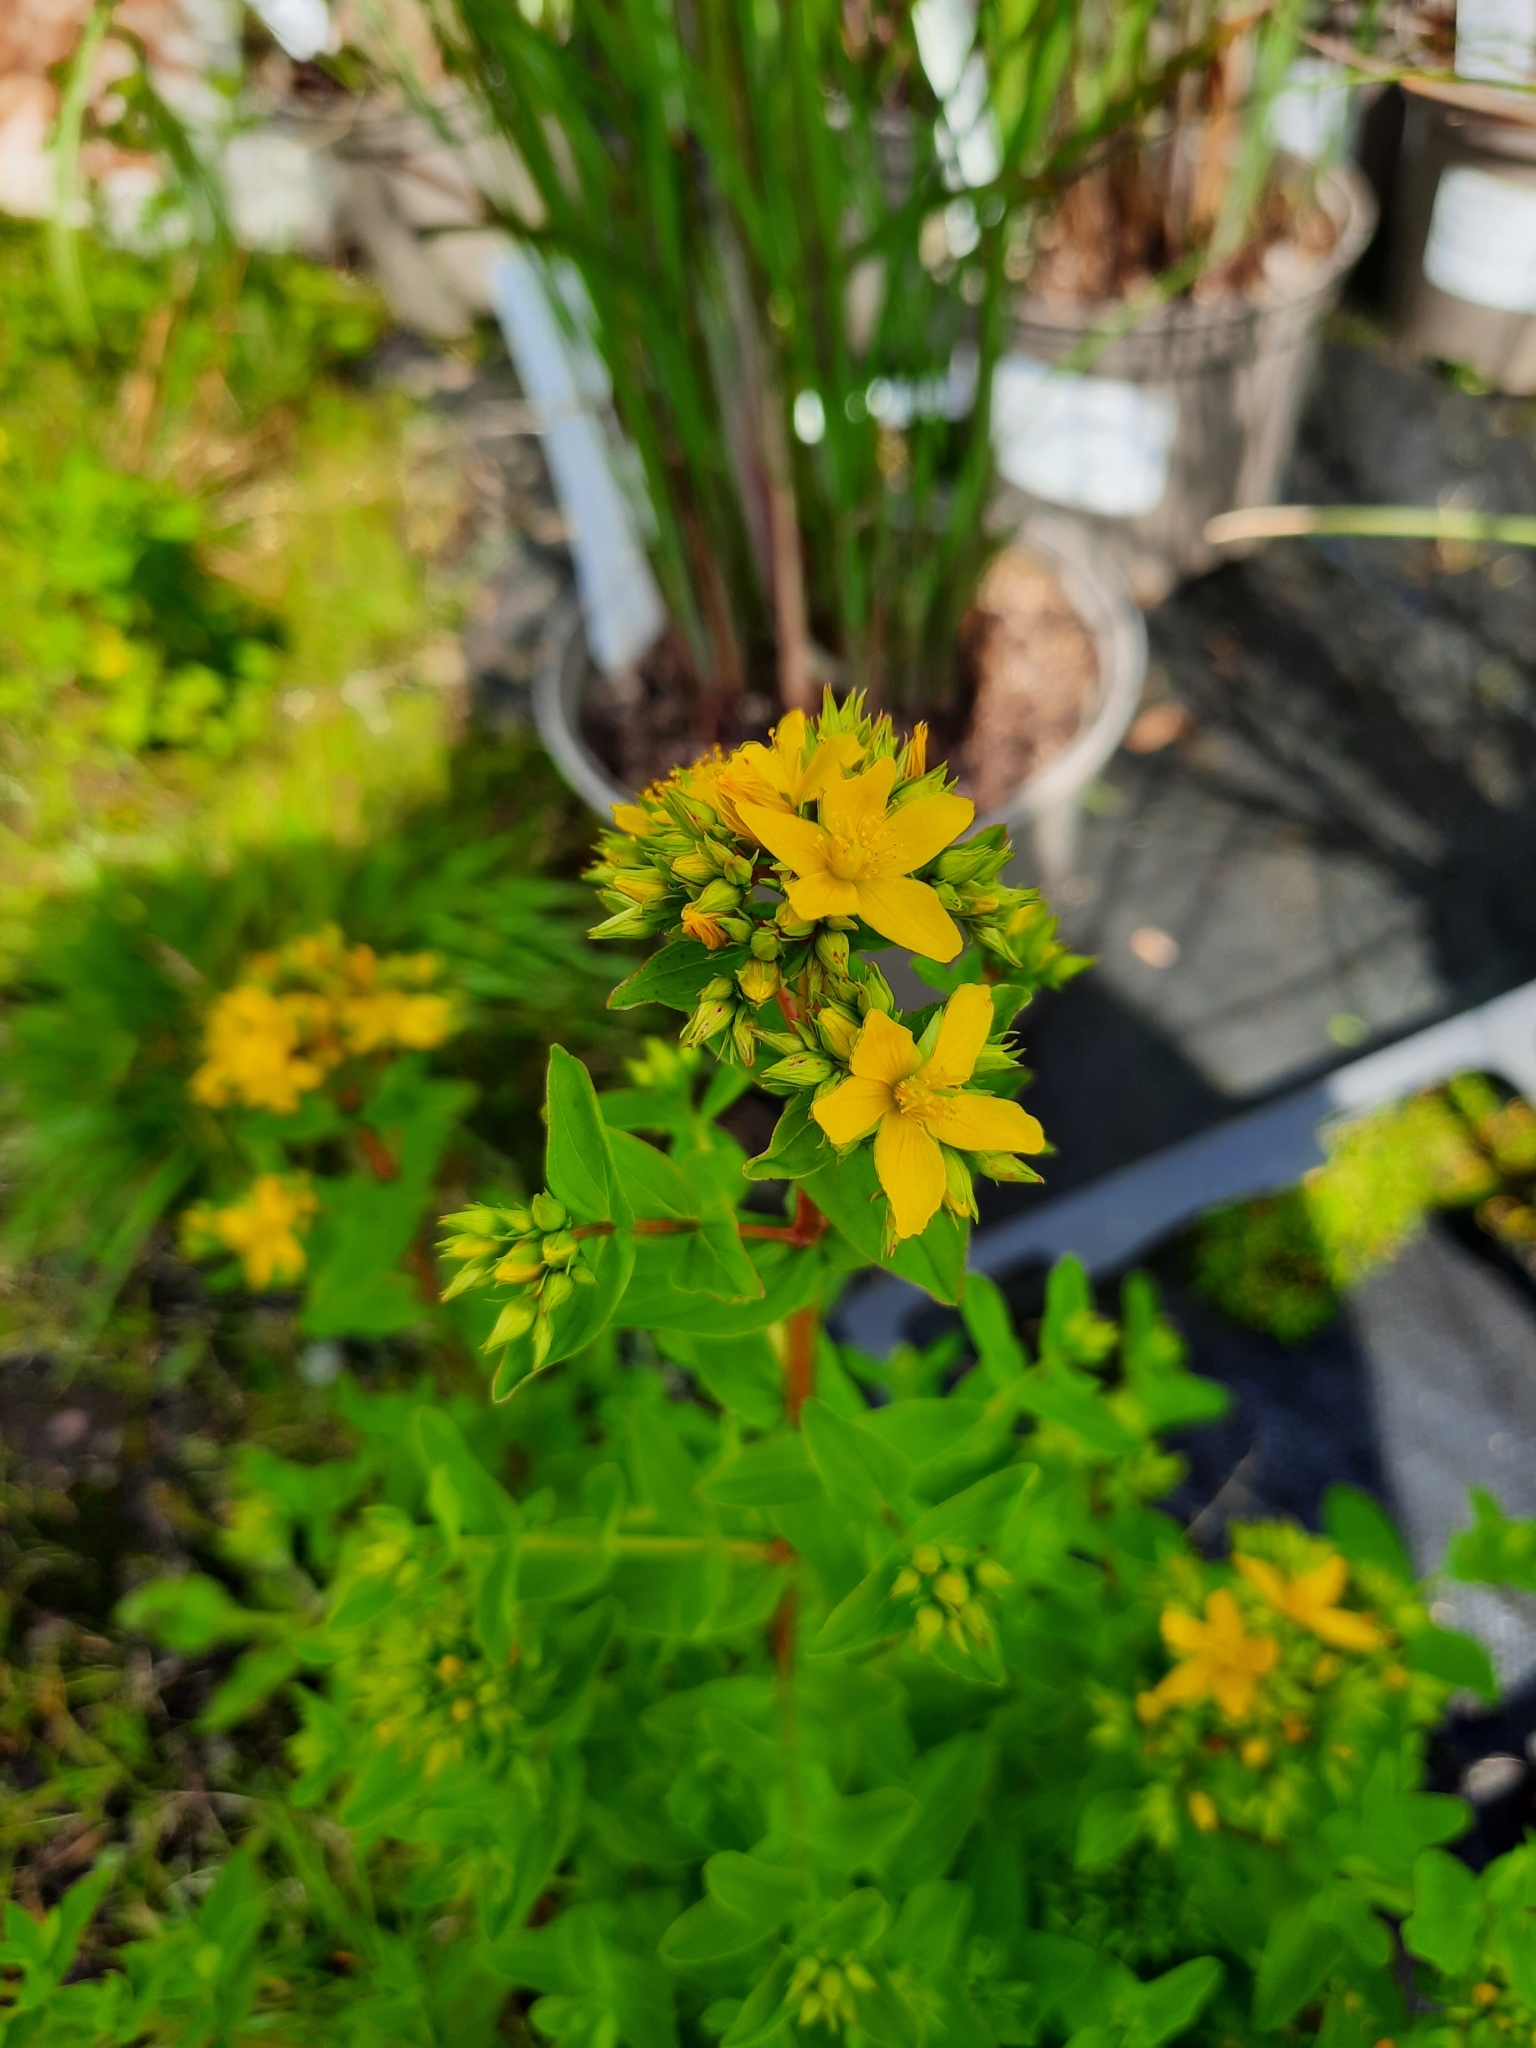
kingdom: Plantae
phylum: Tracheophyta
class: Magnoliopsida
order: Malpighiales
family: Hypericaceae
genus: Hypericum
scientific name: Hypericum tetrapterum
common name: Square-stalked st. john's-wort
